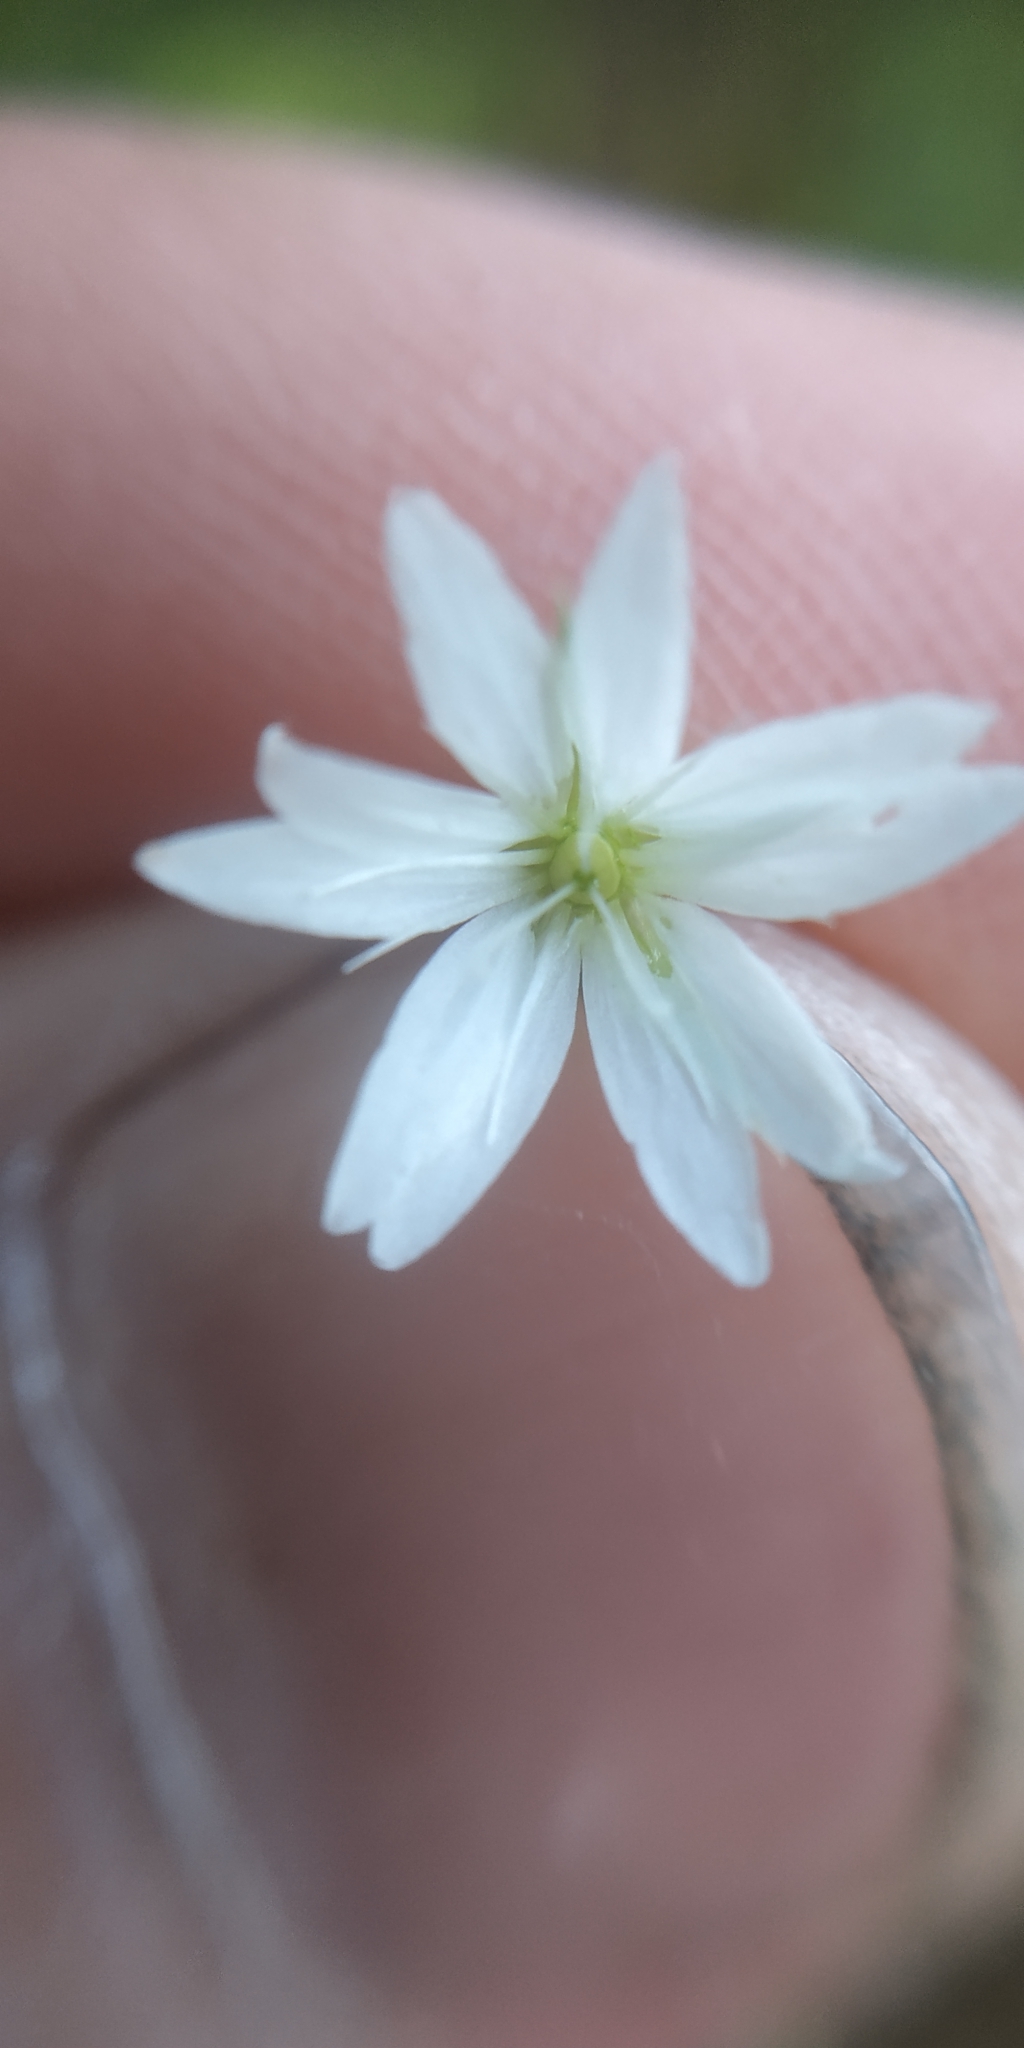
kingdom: Plantae
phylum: Tracheophyta
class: Magnoliopsida
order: Caryophyllales
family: Caryophyllaceae
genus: Stellaria
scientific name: Stellaria graminea
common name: Grass-like starwort
